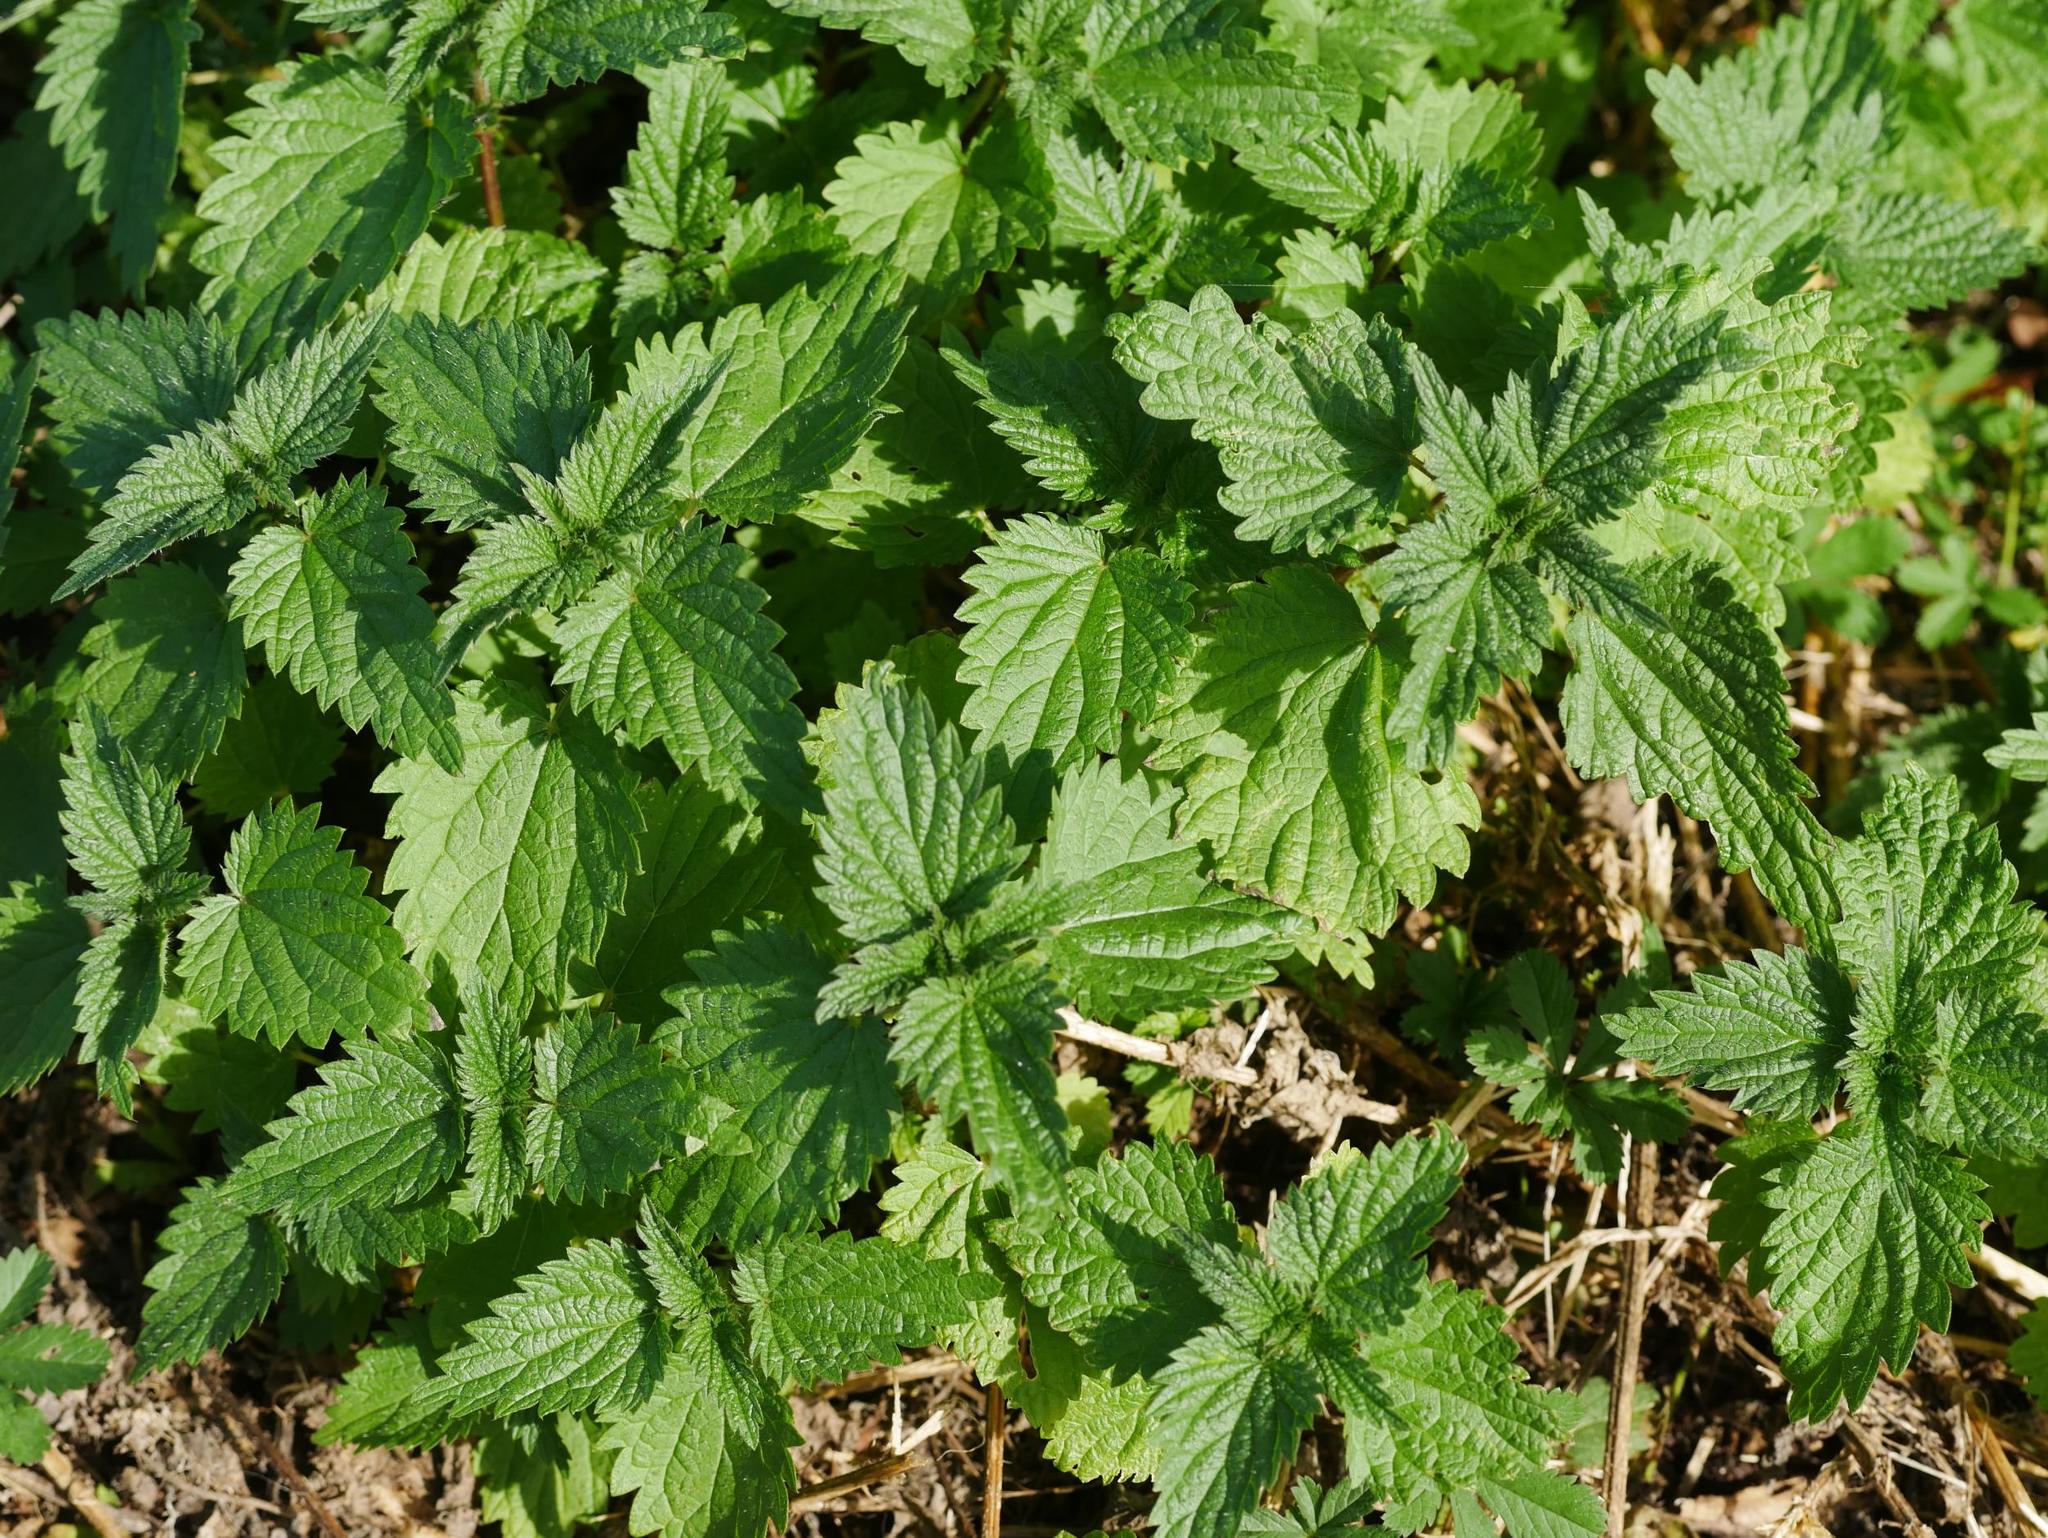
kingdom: Plantae
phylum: Tracheophyta
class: Magnoliopsida
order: Rosales
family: Urticaceae
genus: Urtica
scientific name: Urtica dioica
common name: Common nettle
